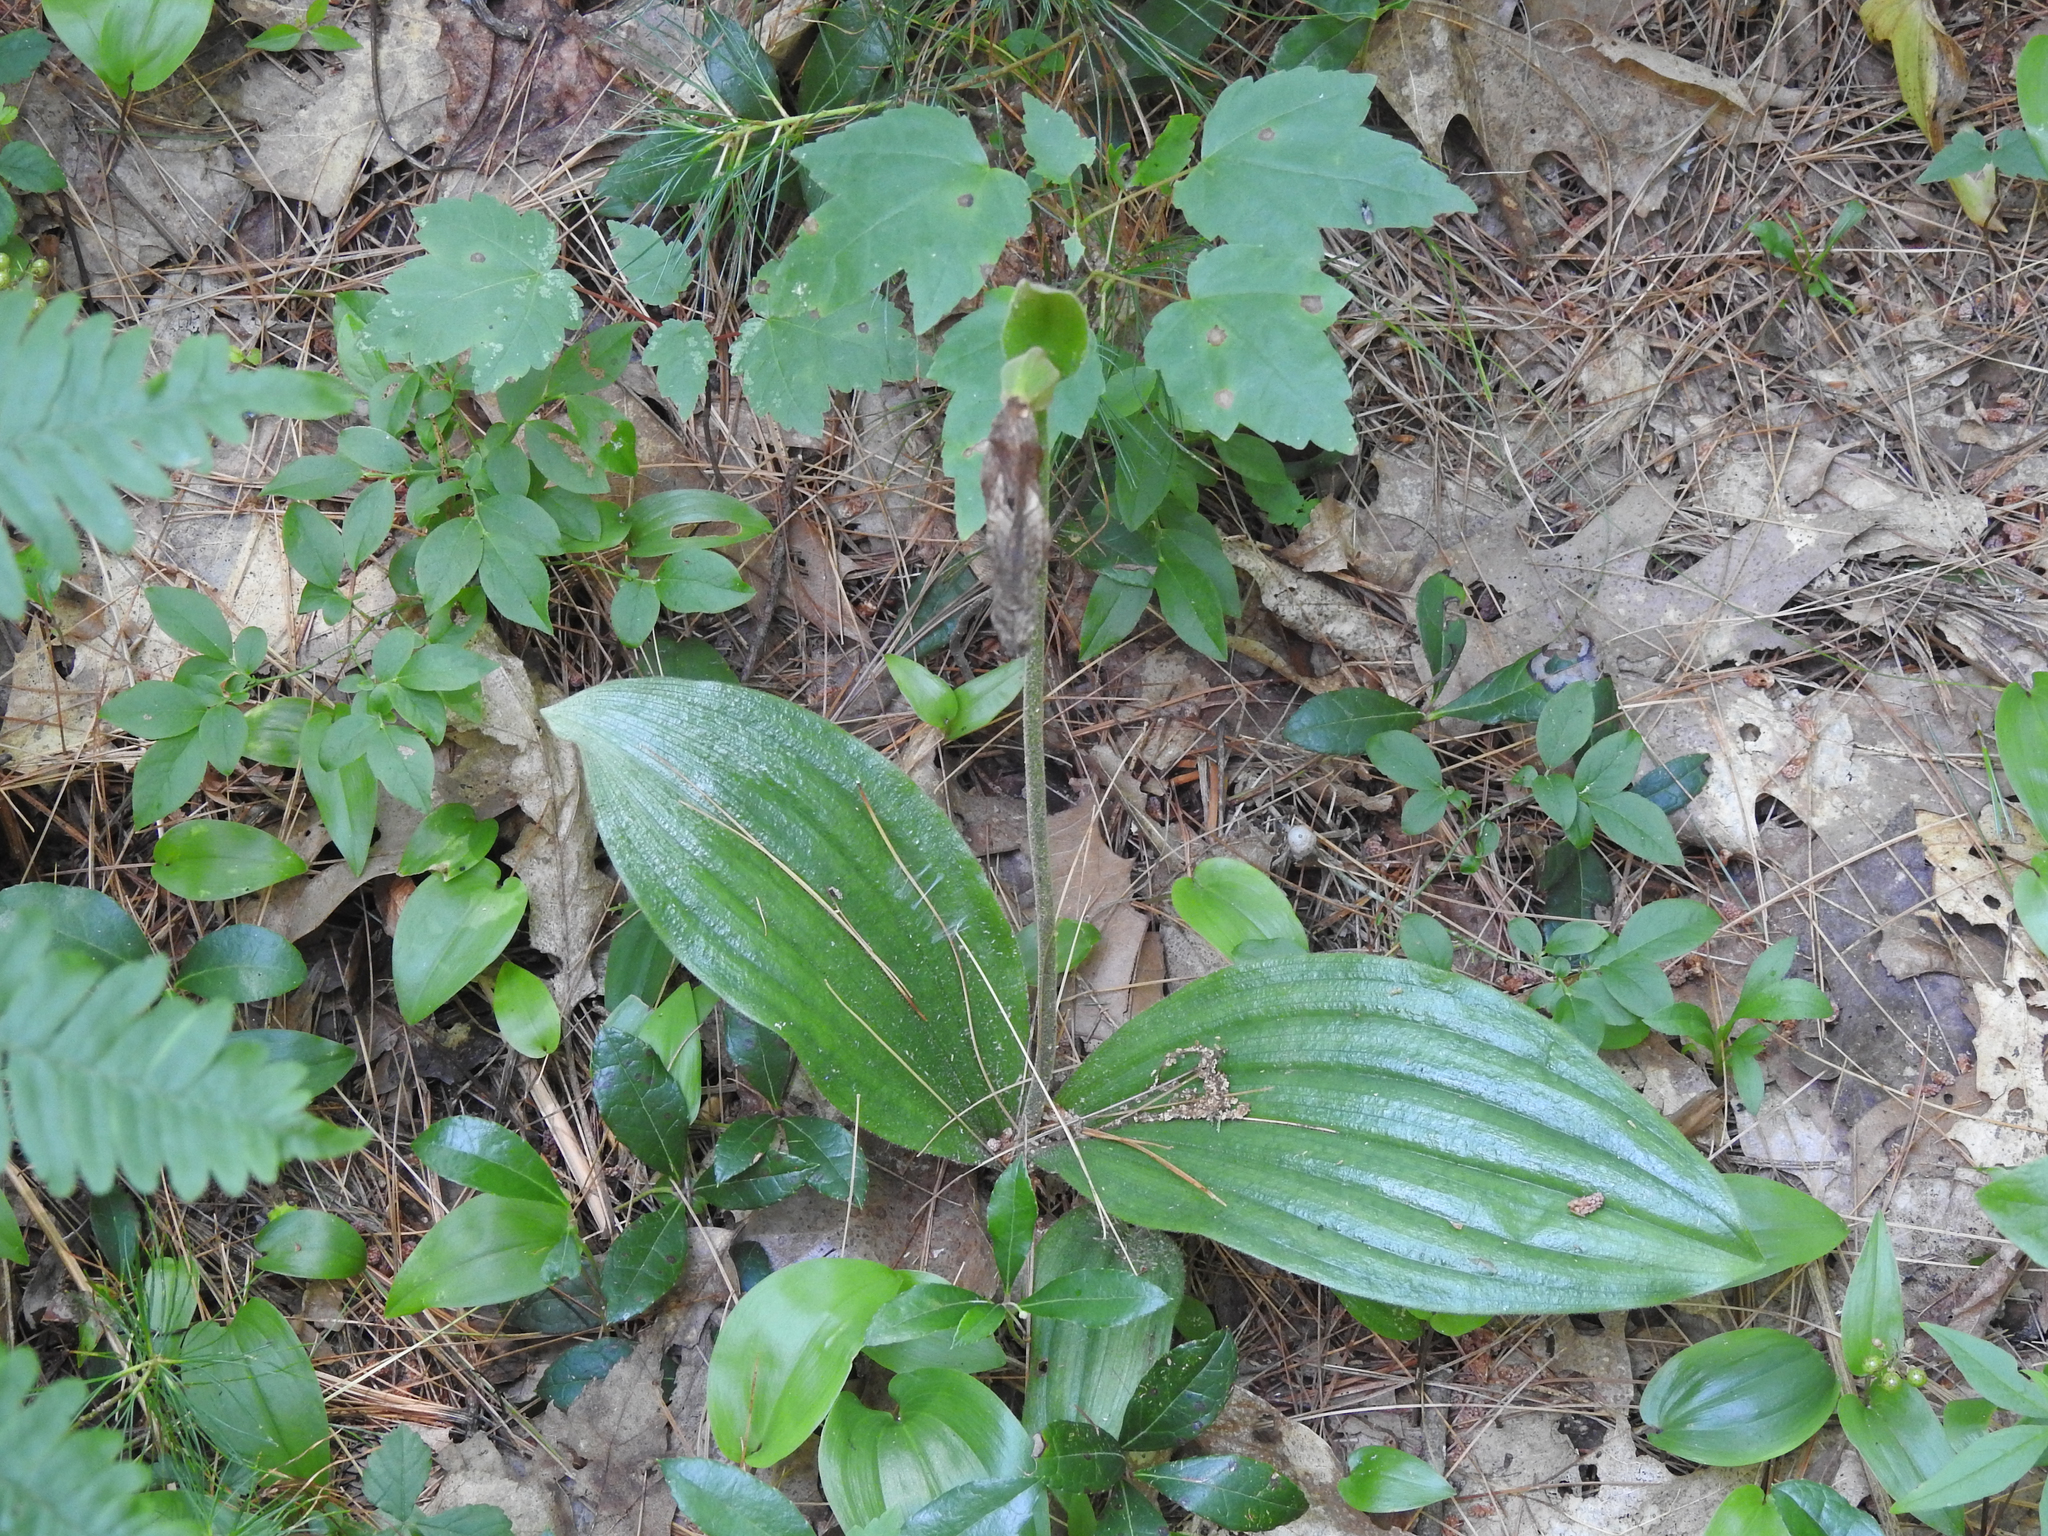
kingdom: Plantae
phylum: Tracheophyta
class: Liliopsida
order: Asparagales
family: Orchidaceae
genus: Cypripedium
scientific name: Cypripedium acaule
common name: Pink lady's-slipper
